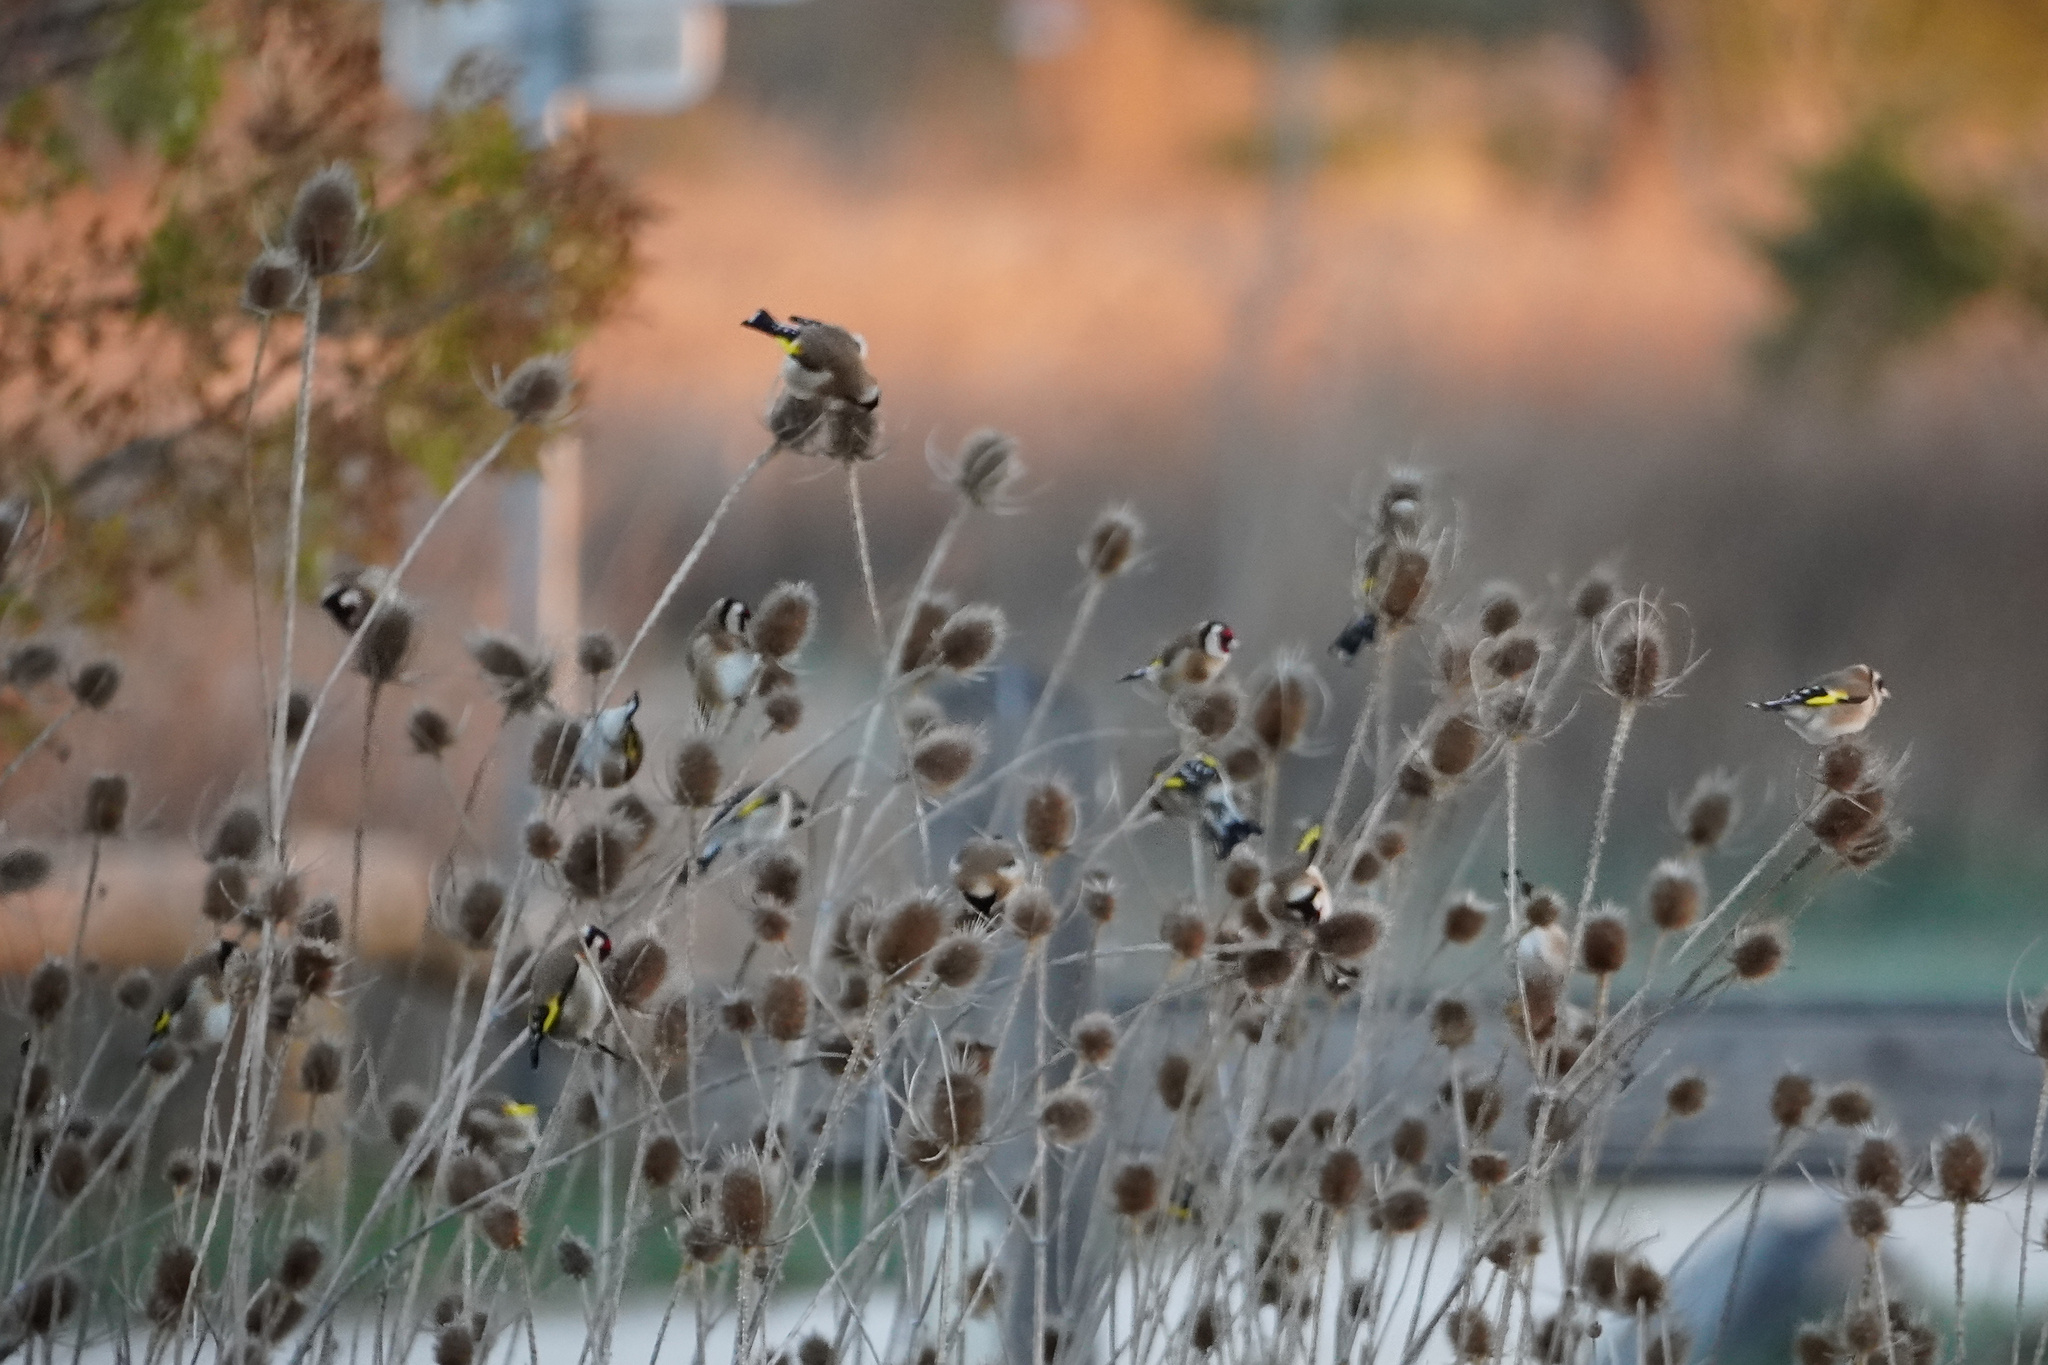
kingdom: Animalia
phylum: Chordata
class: Aves
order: Passeriformes
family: Fringillidae
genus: Carduelis
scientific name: Carduelis carduelis
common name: European goldfinch
